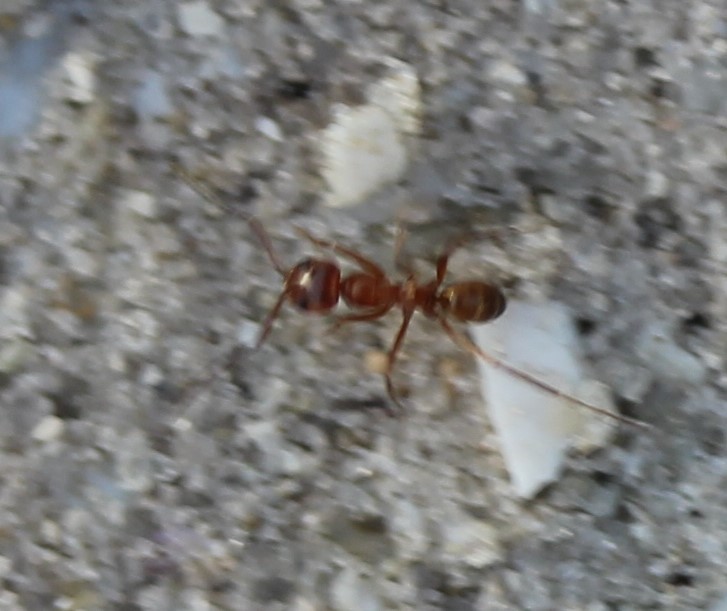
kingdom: Animalia
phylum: Arthropoda
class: Insecta
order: Hymenoptera
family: Formicidae
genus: Dorymyrmex
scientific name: Dorymyrmex bureni
